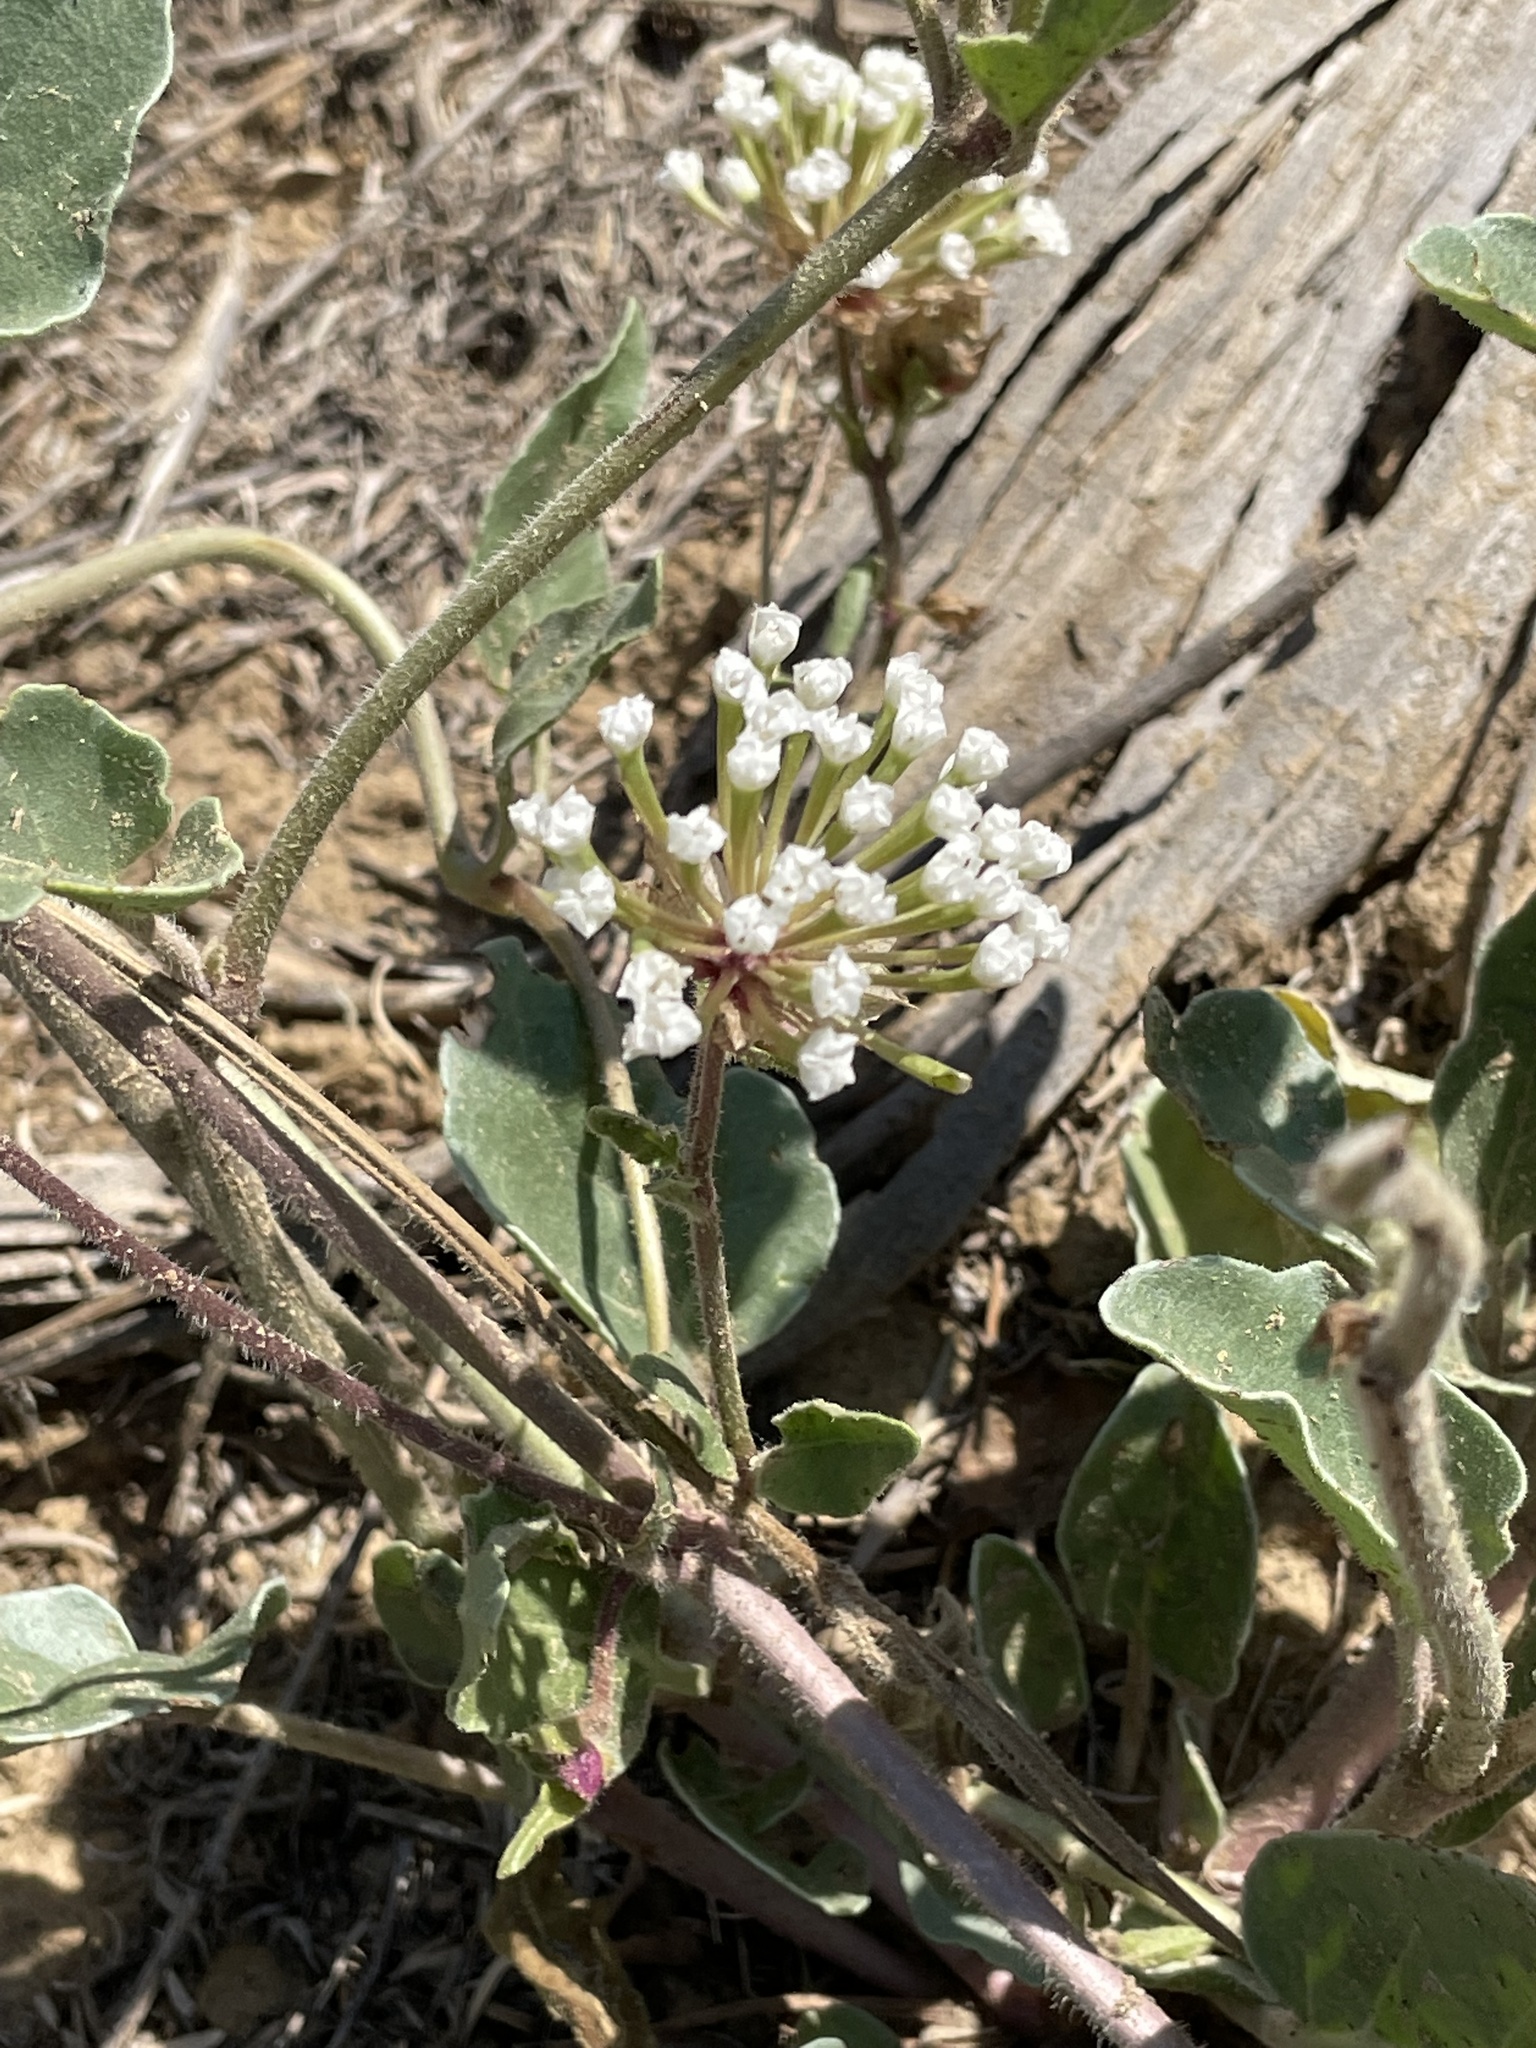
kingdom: Plantae
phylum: Tracheophyta
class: Magnoliopsida
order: Caryophyllales
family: Nyctaginaceae
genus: Abronia
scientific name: Abronia fragrans
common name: Fragrant sand-verbena
